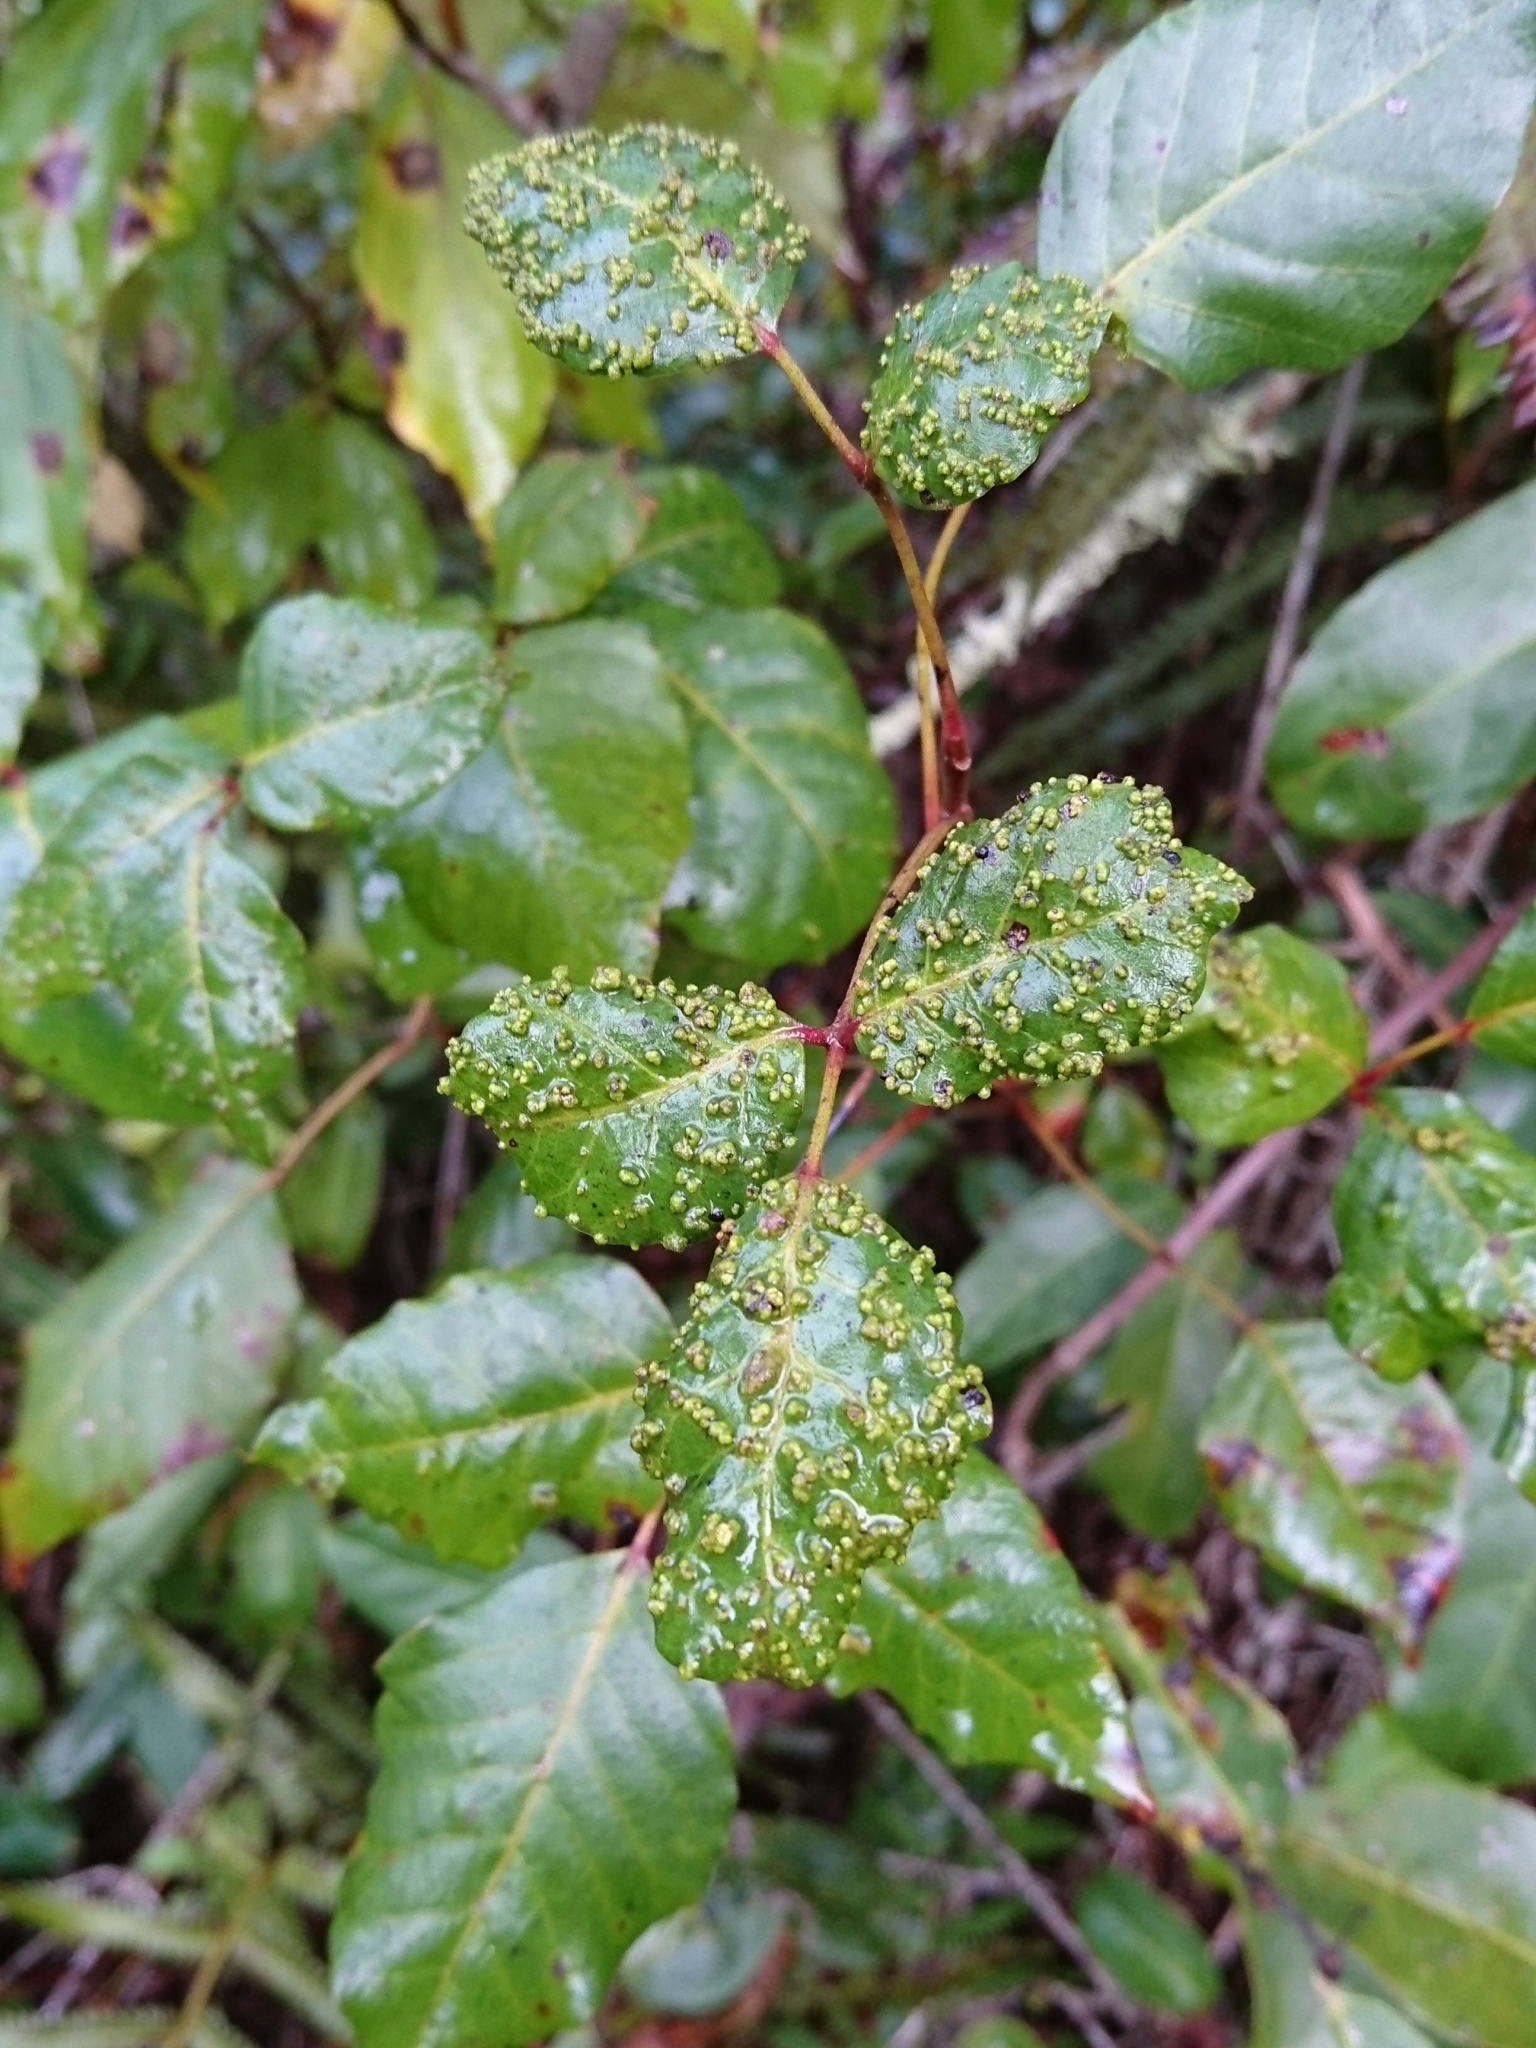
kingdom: Animalia
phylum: Arthropoda
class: Arachnida
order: Trombidiformes
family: Eriophyidae
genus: Aculops
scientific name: Aculops
